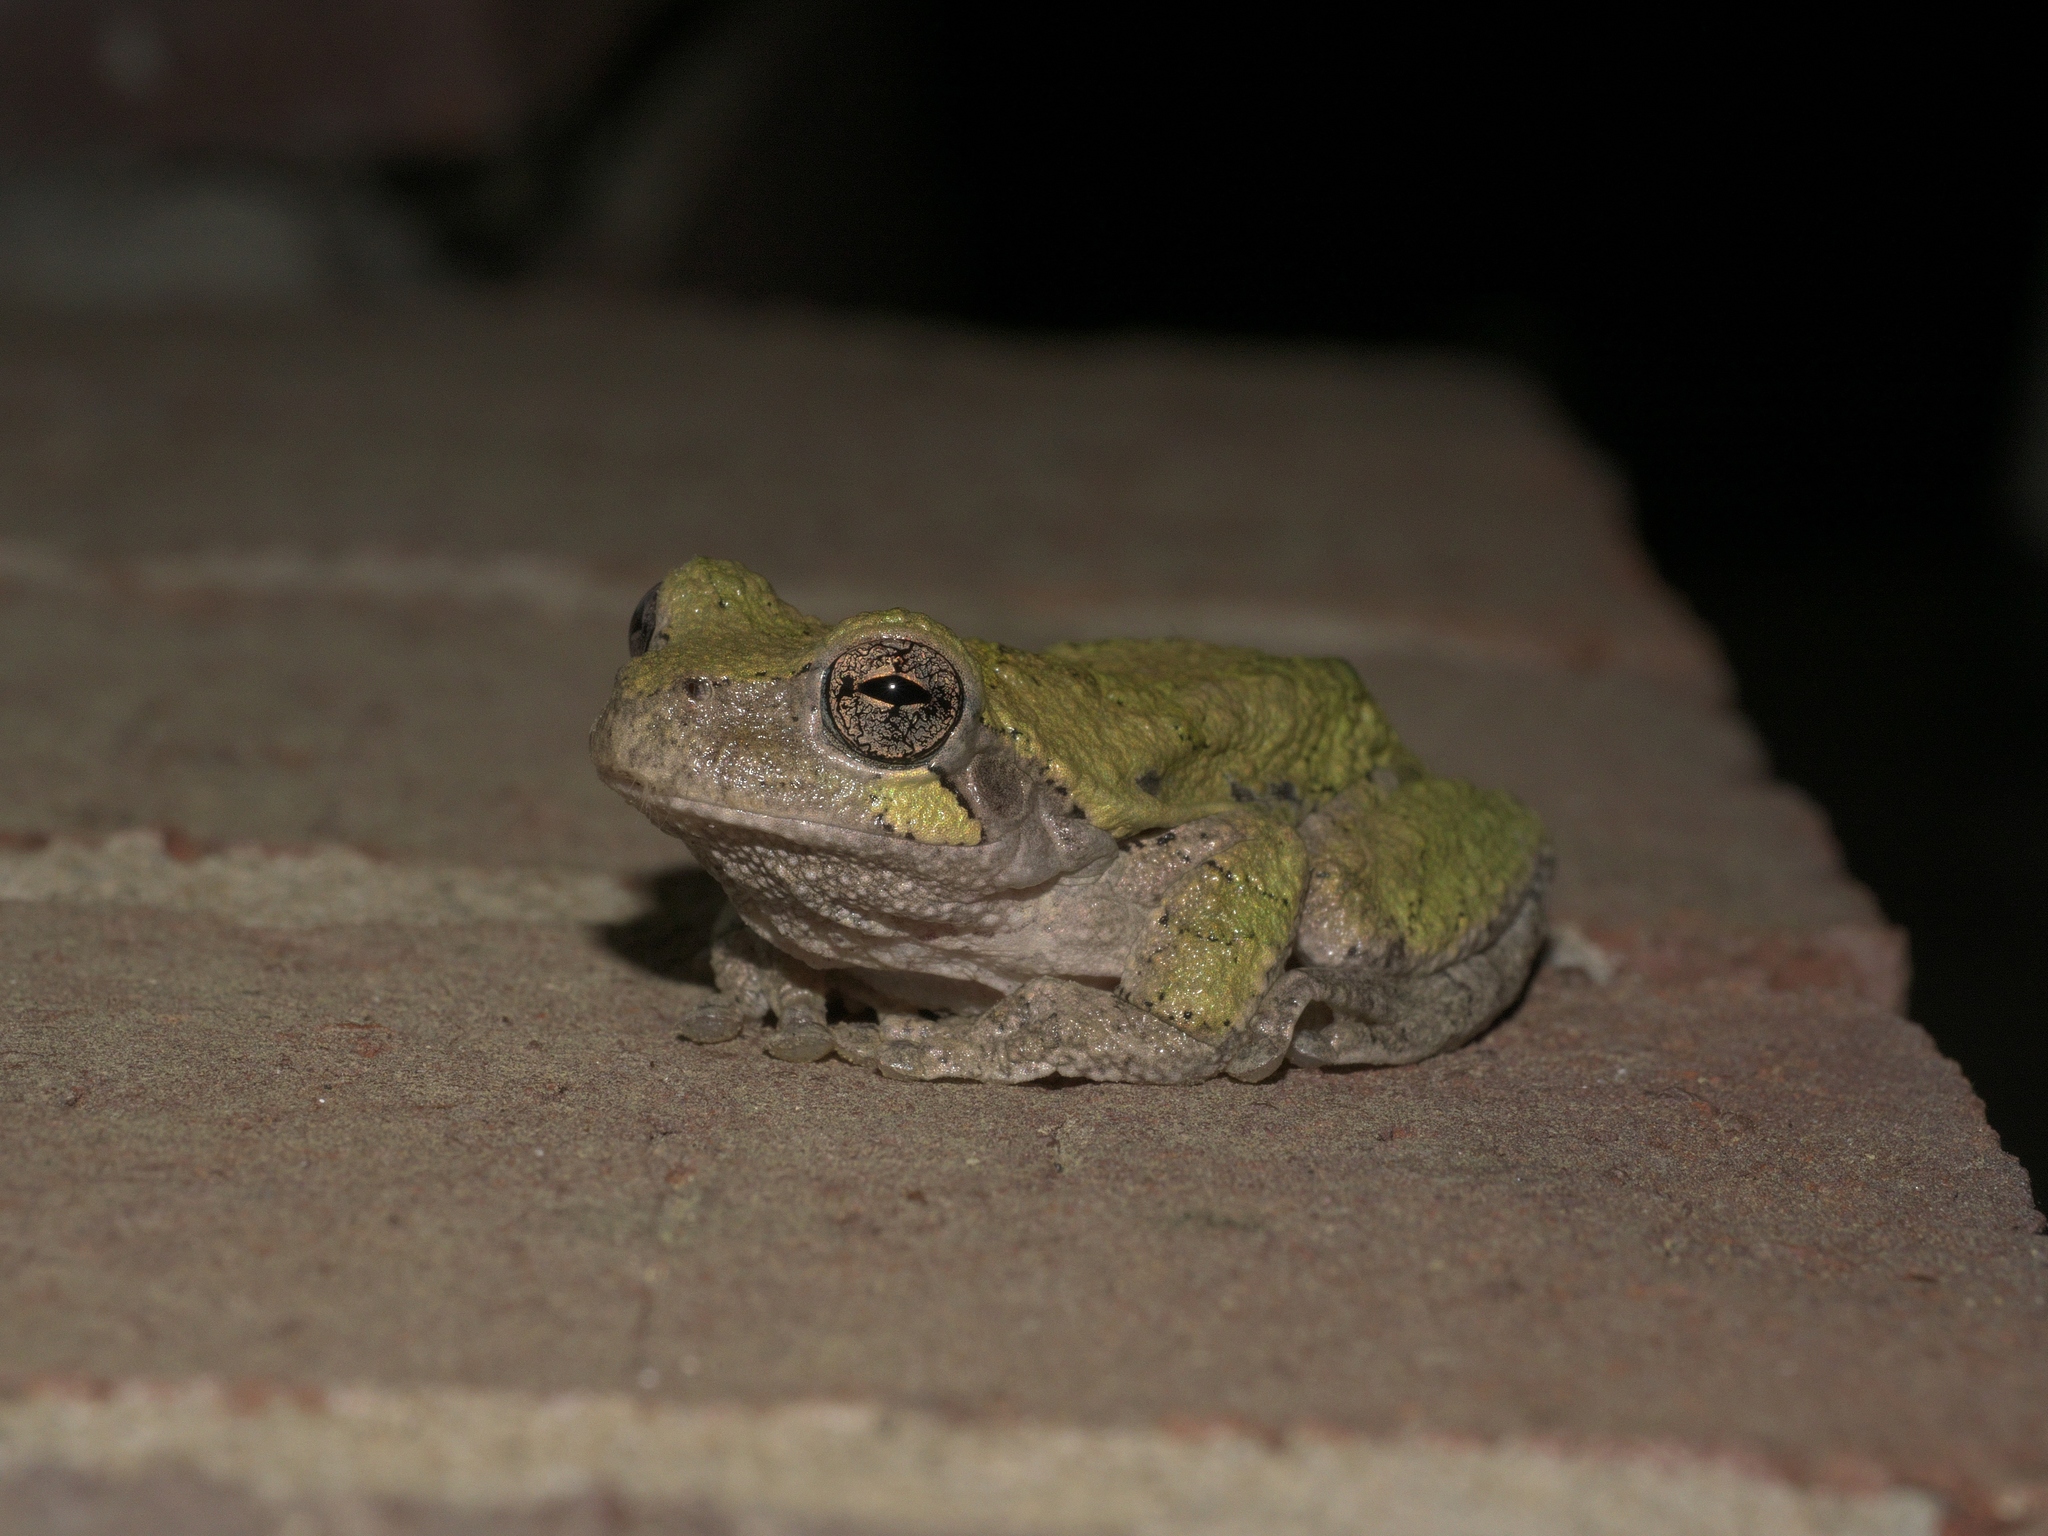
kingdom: Animalia
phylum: Chordata
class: Amphibia
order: Anura
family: Hylidae
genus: Hyla
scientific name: Hyla
